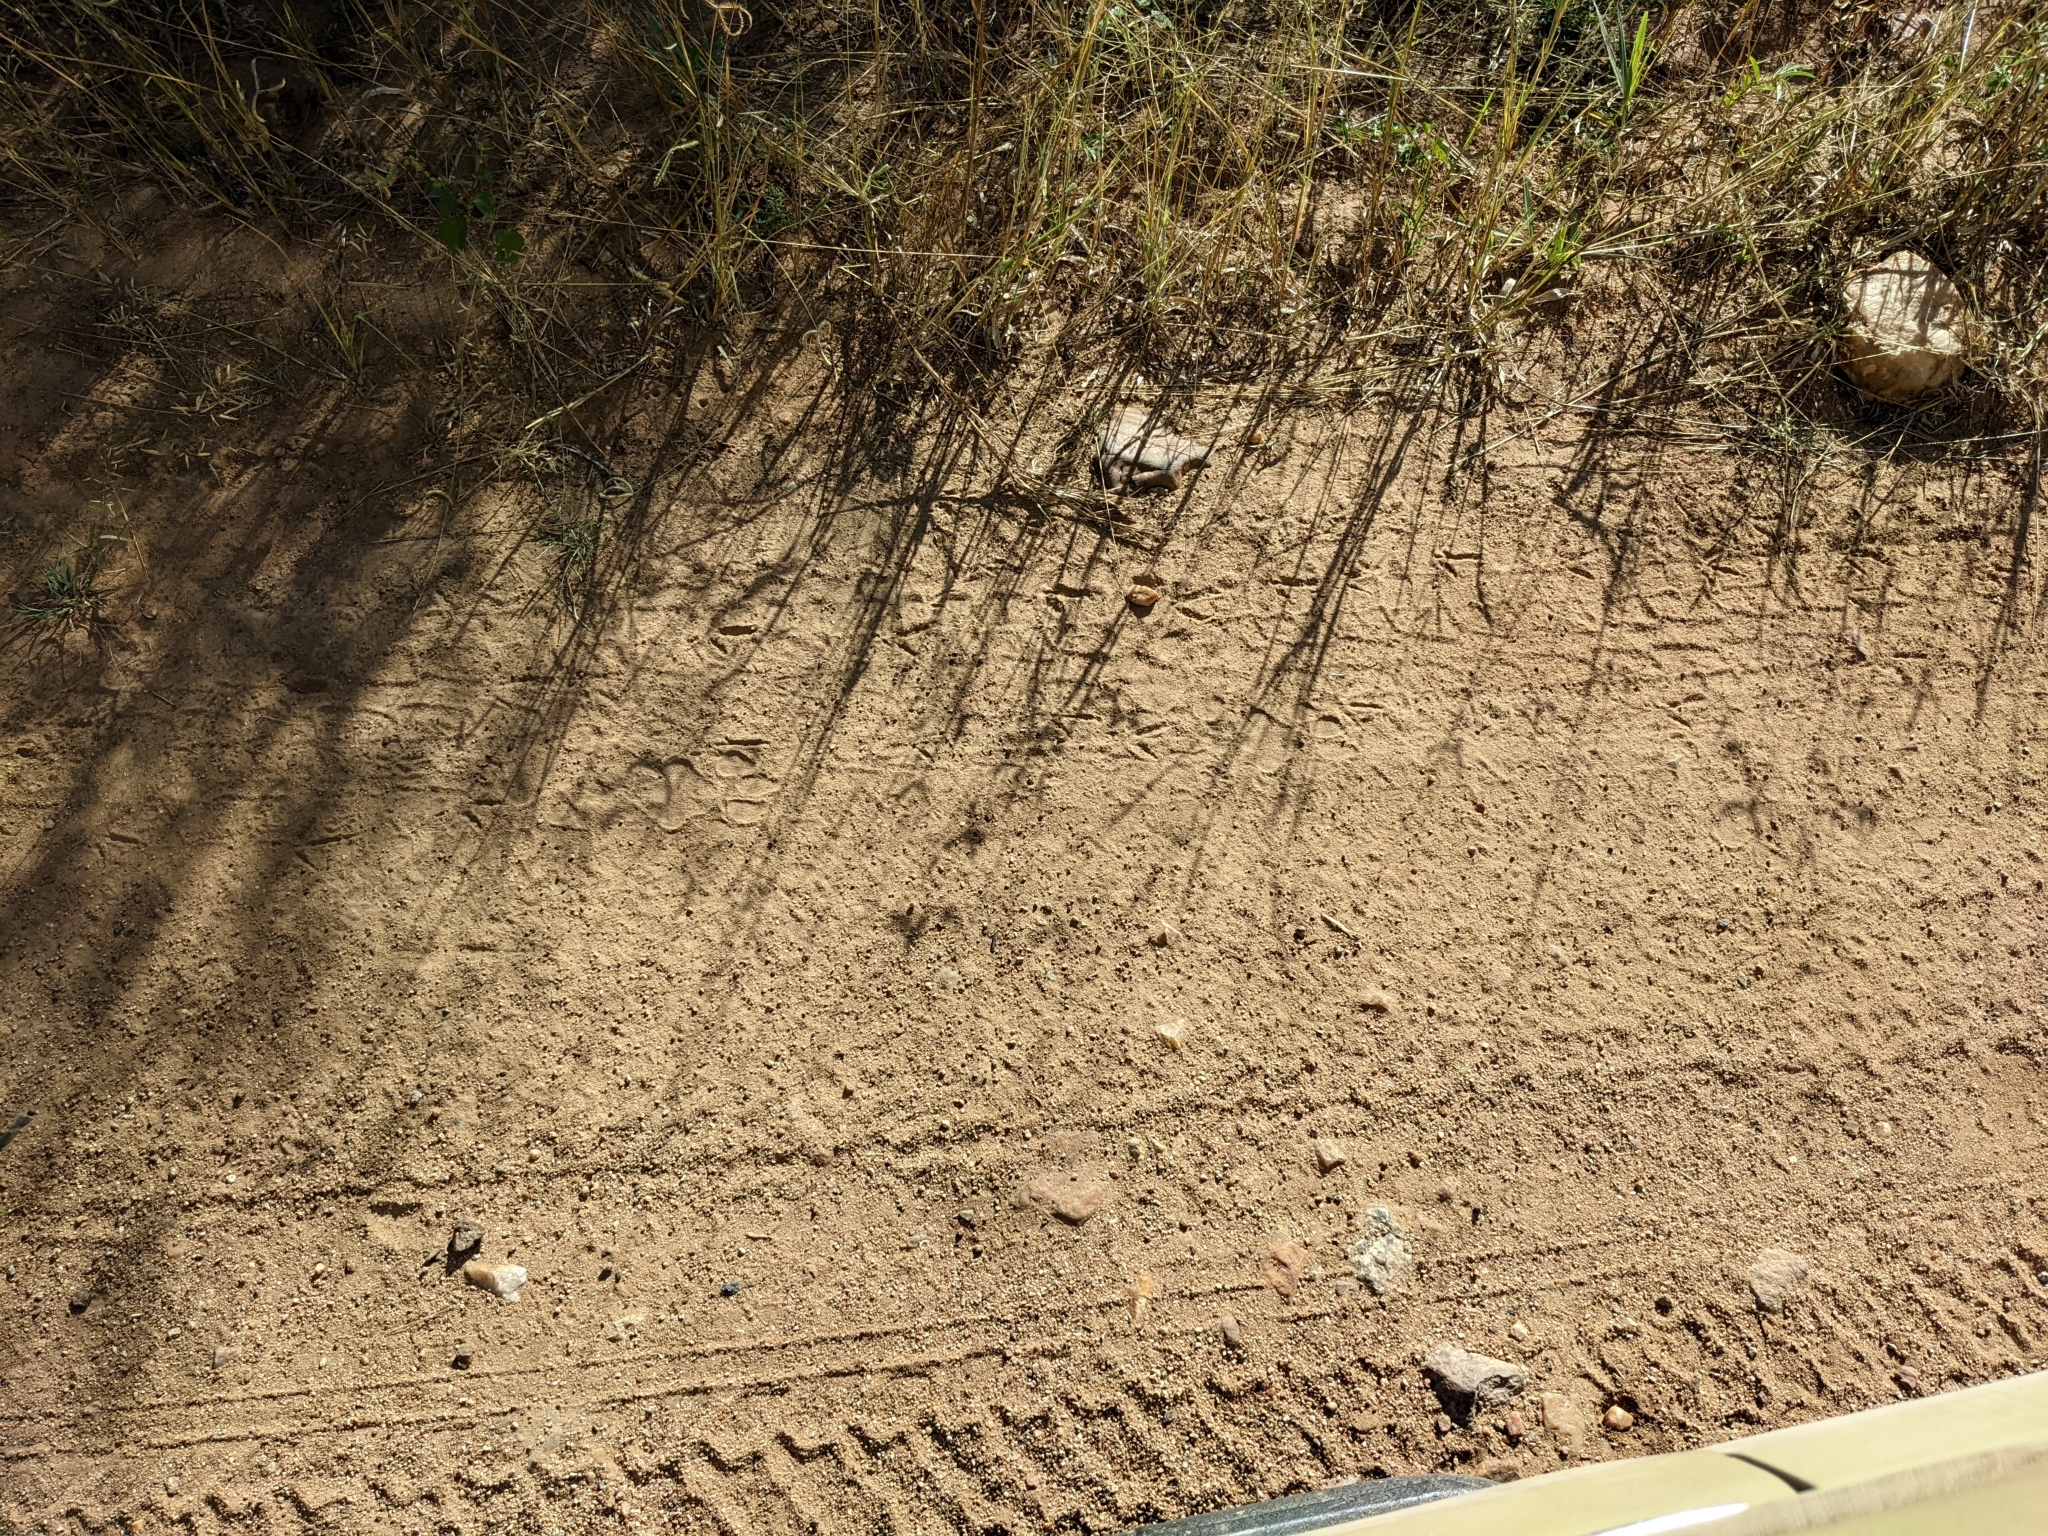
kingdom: Animalia
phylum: Chordata
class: Mammalia
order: Carnivora
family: Felidae
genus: Panthera
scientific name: Panthera pardus
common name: Leopard
